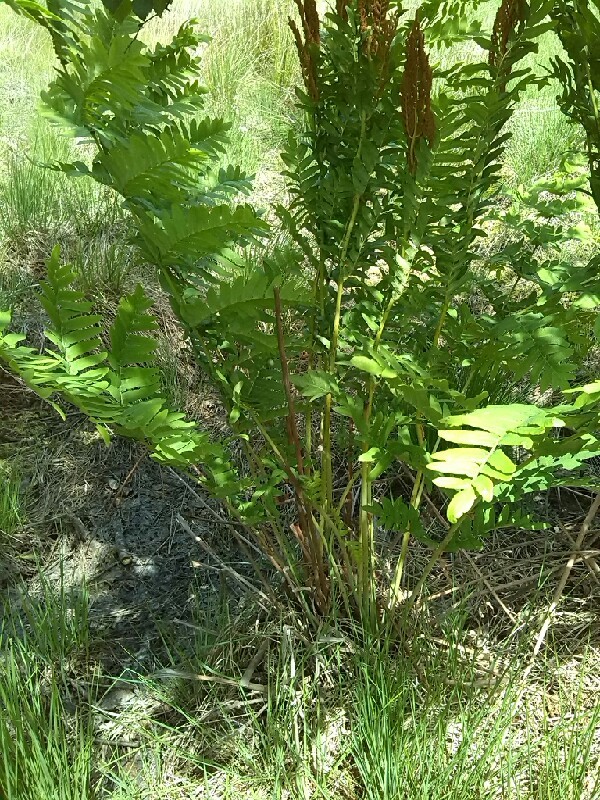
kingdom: Plantae
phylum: Tracheophyta
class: Polypodiopsida
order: Osmundales
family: Osmundaceae
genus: Osmunda
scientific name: Osmunda regalis
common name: Royal fern
